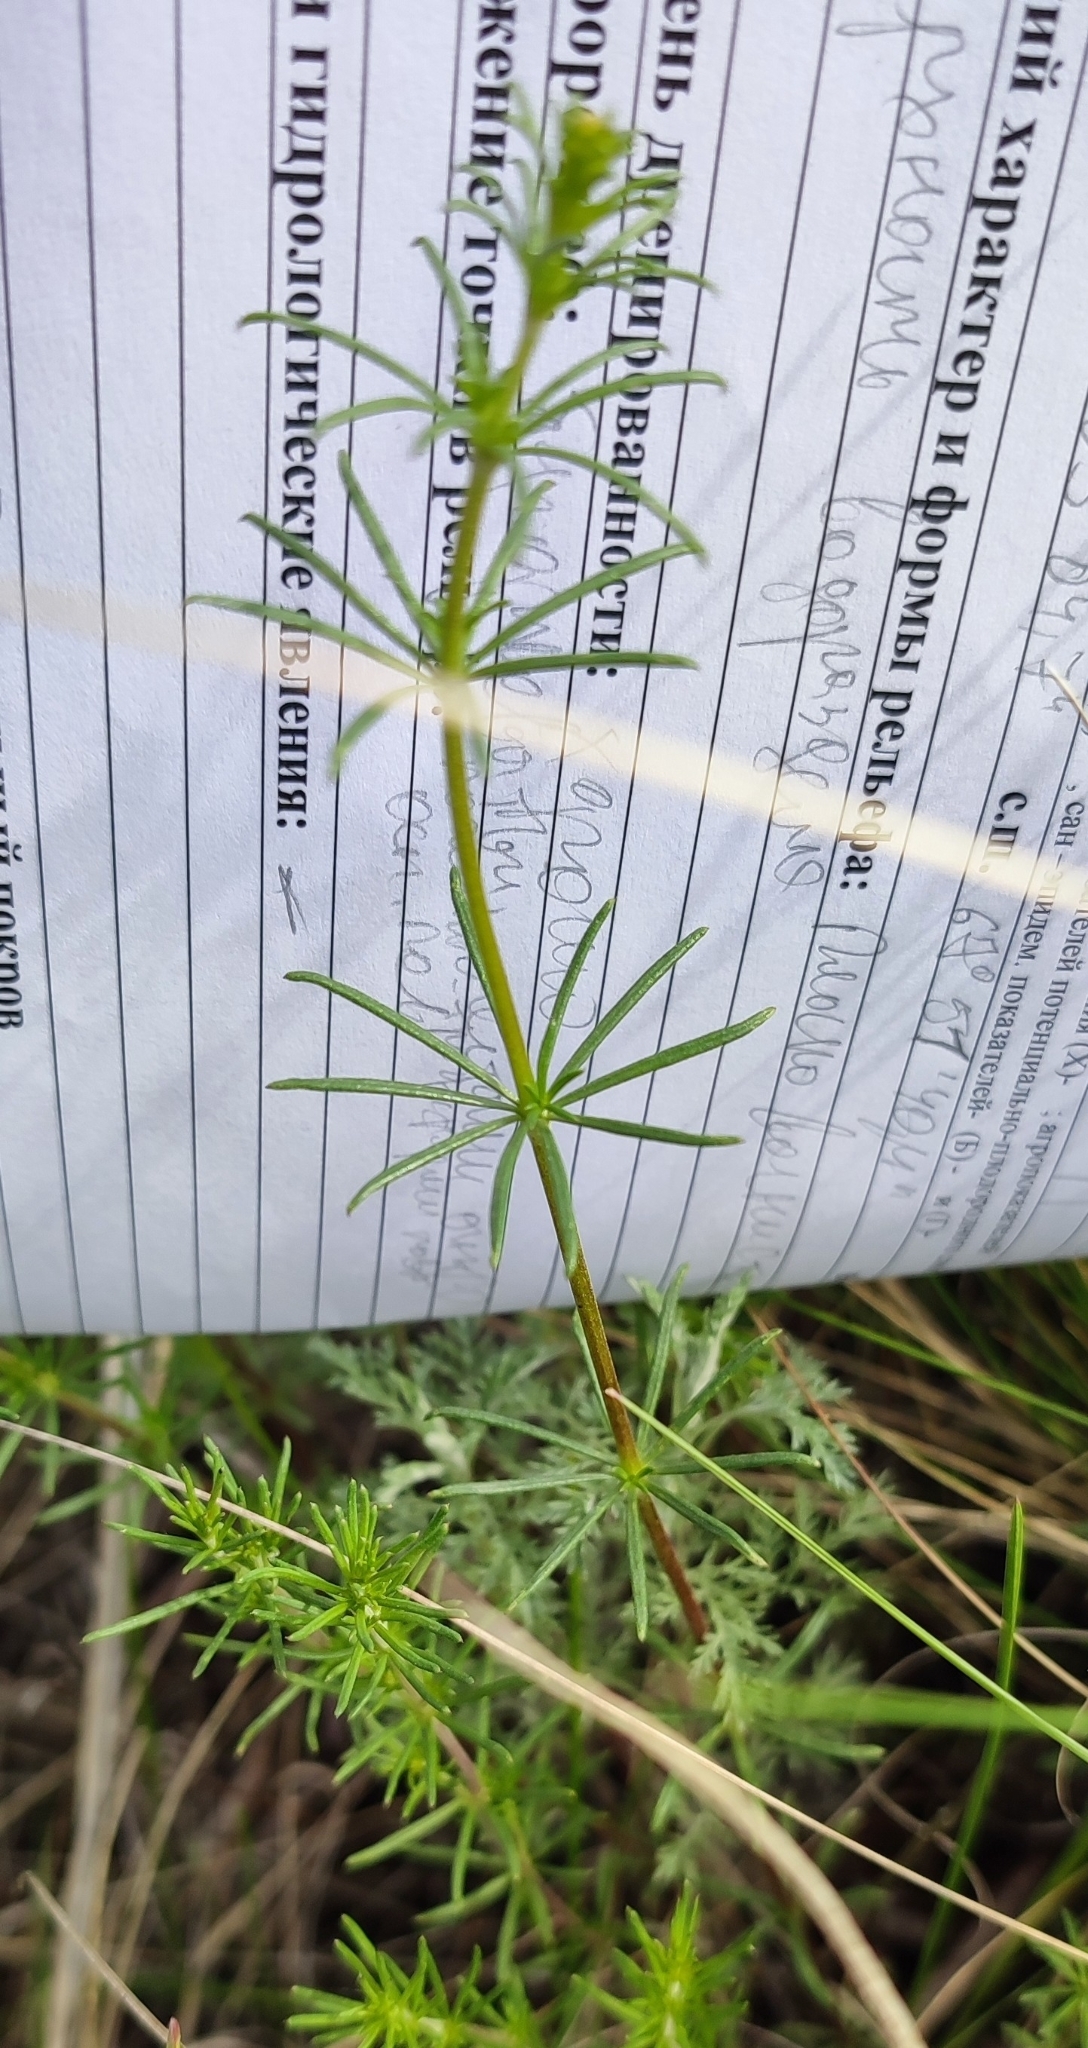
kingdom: Plantae
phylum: Tracheophyta
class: Magnoliopsida
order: Gentianales
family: Rubiaceae
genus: Galium
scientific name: Galium verum
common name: Lady's bedstraw
